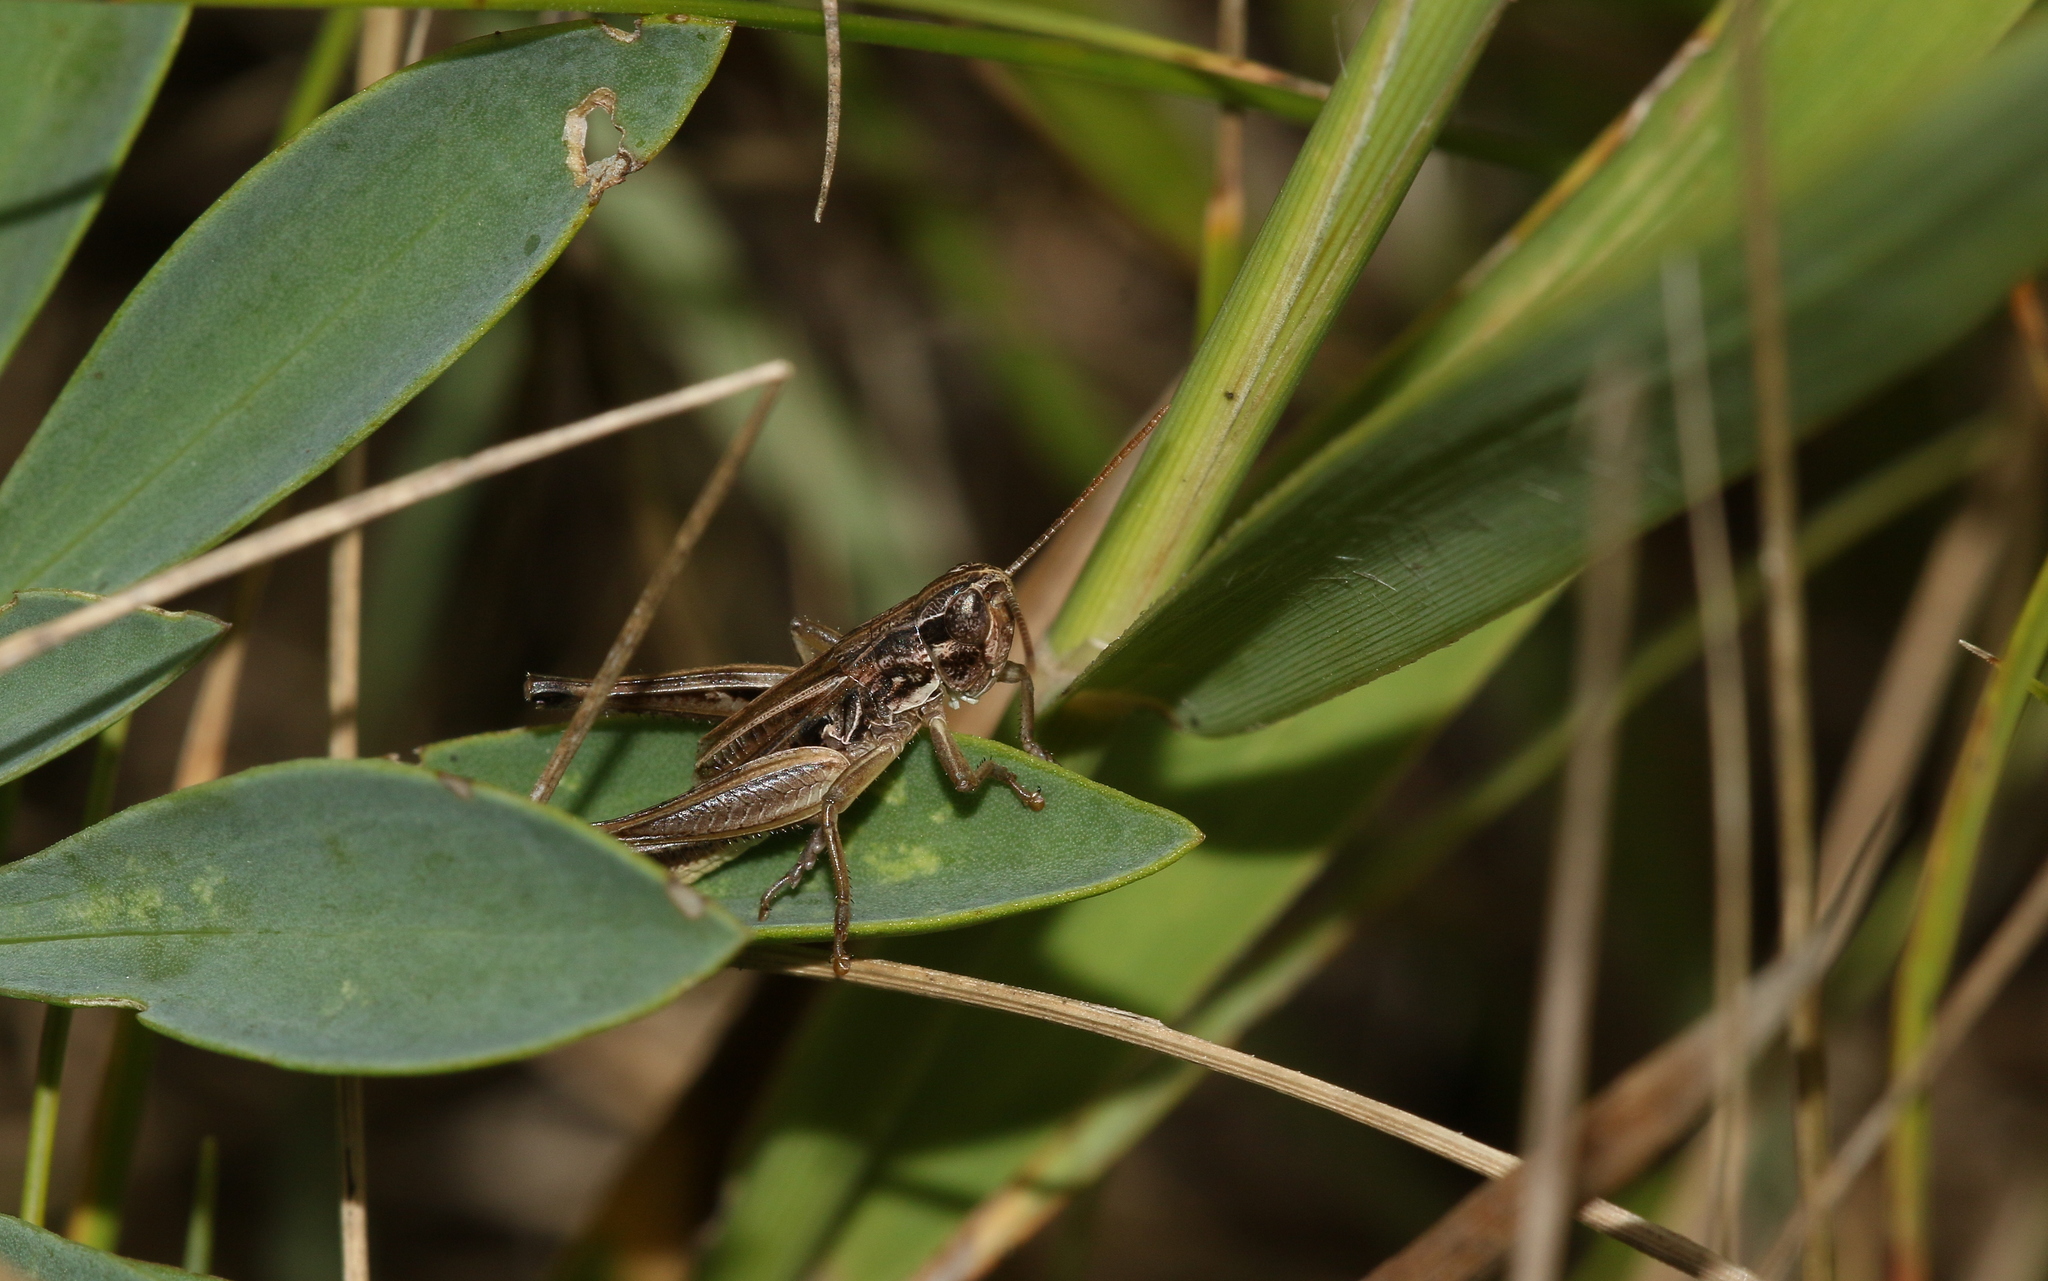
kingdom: Animalia
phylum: Arthropoda
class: Insecta
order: Orthoptera
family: Acrididae
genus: Stenobothrus
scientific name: Stenobothrus crassipes
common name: Pygmy toothed grasshopper
